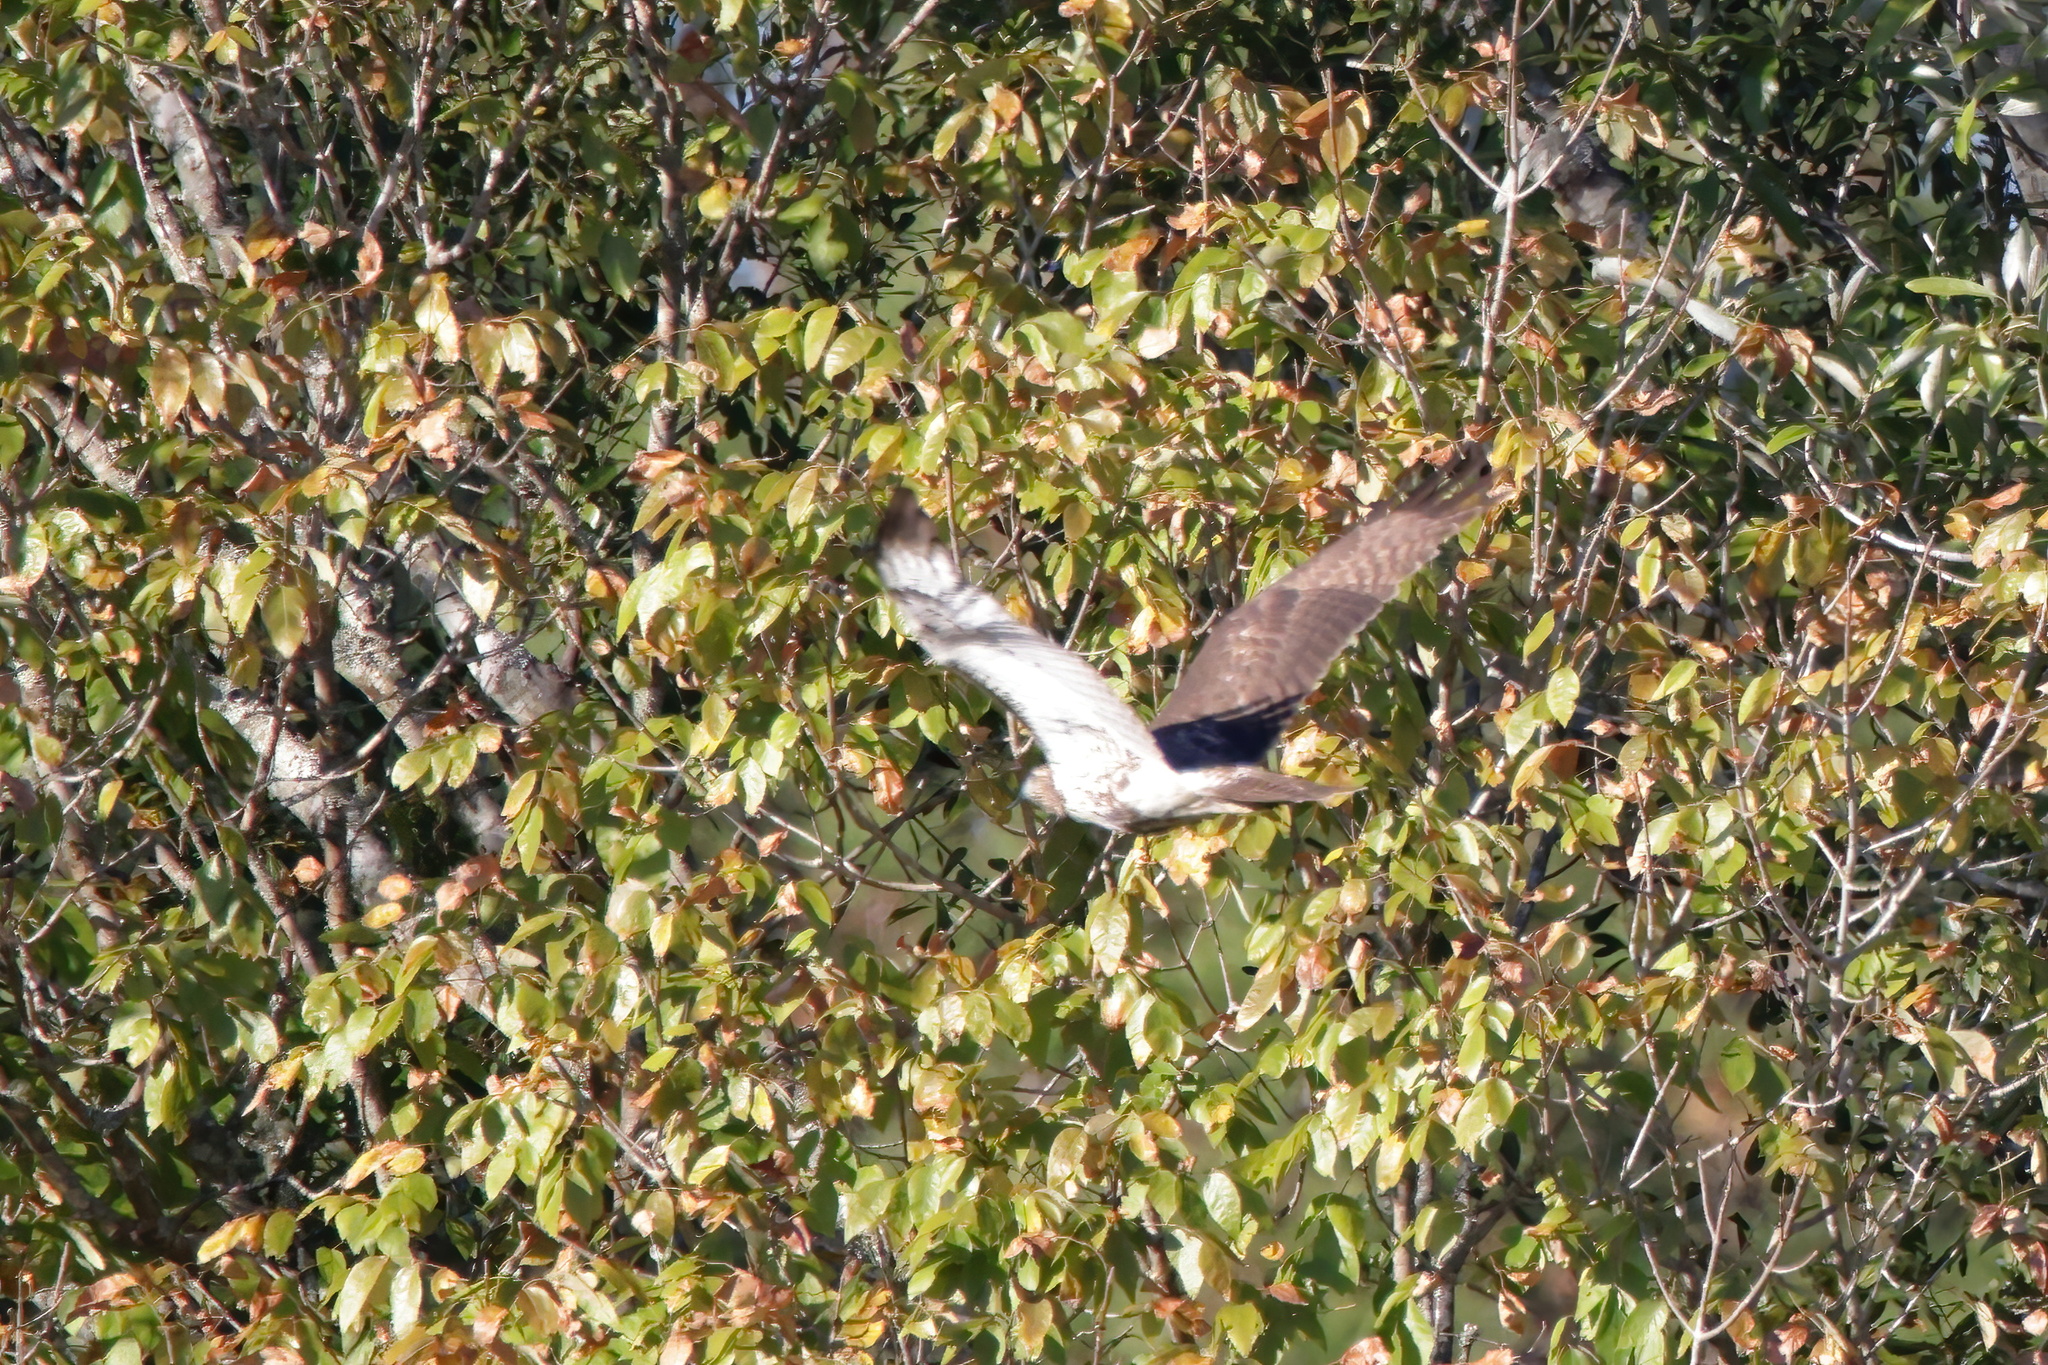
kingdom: Animalia
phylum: Chordata
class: Aves
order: Accipitriformes
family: Accipitridae
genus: Buteo
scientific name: Buteo jamaicensis
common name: Red-tailed hawk
